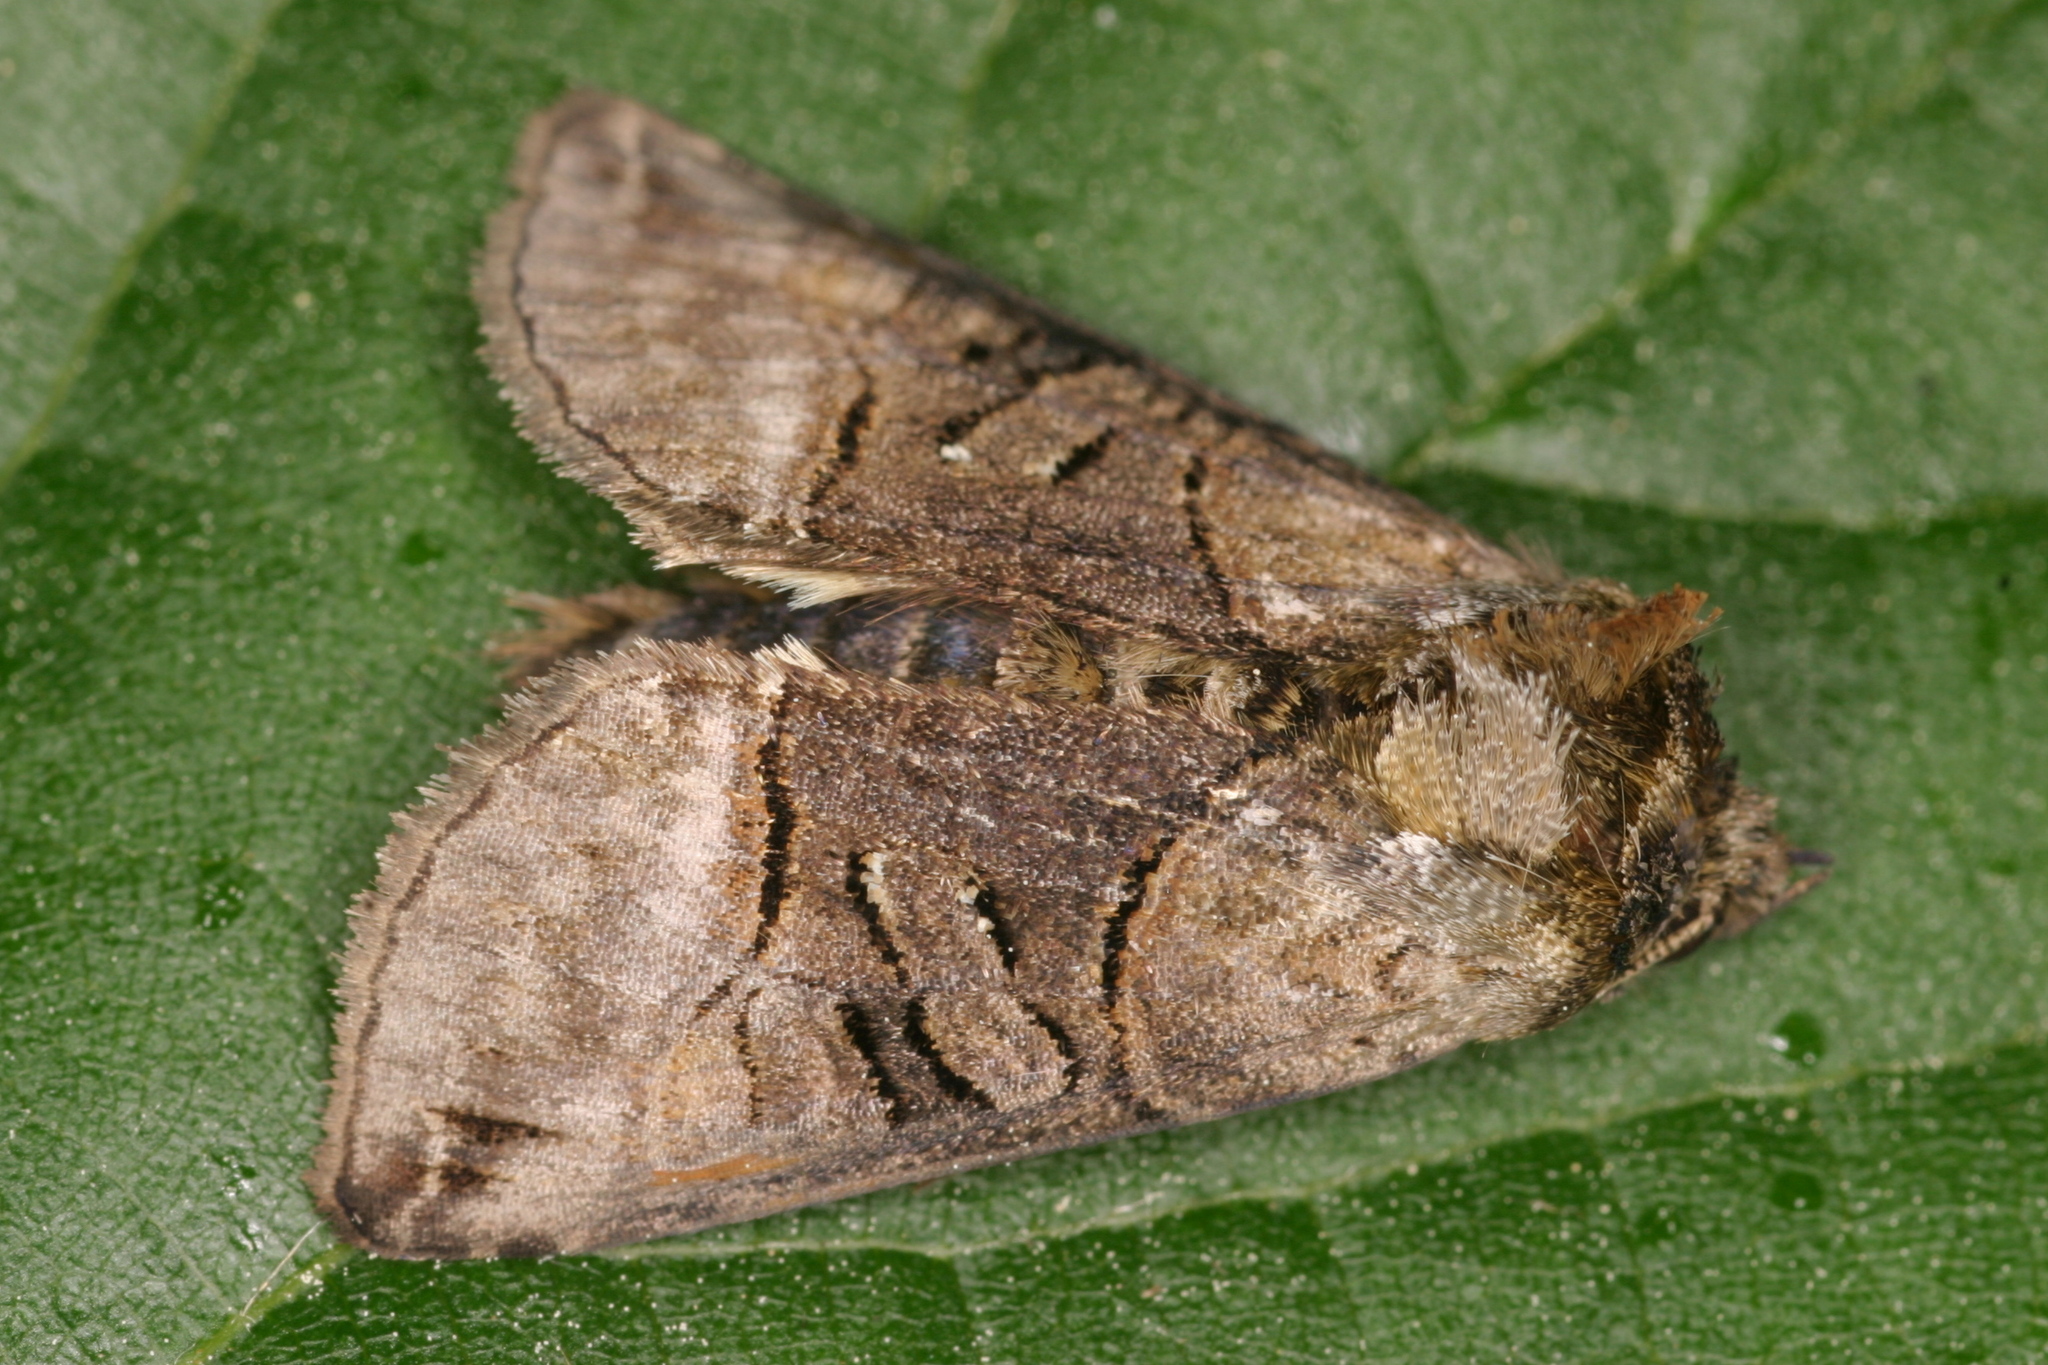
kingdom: Animalia
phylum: Arthropoda
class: Insecta
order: Lepidoptera
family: Noctuidae
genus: Abrostola
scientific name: Abrostola tripartita
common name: Spectacle
